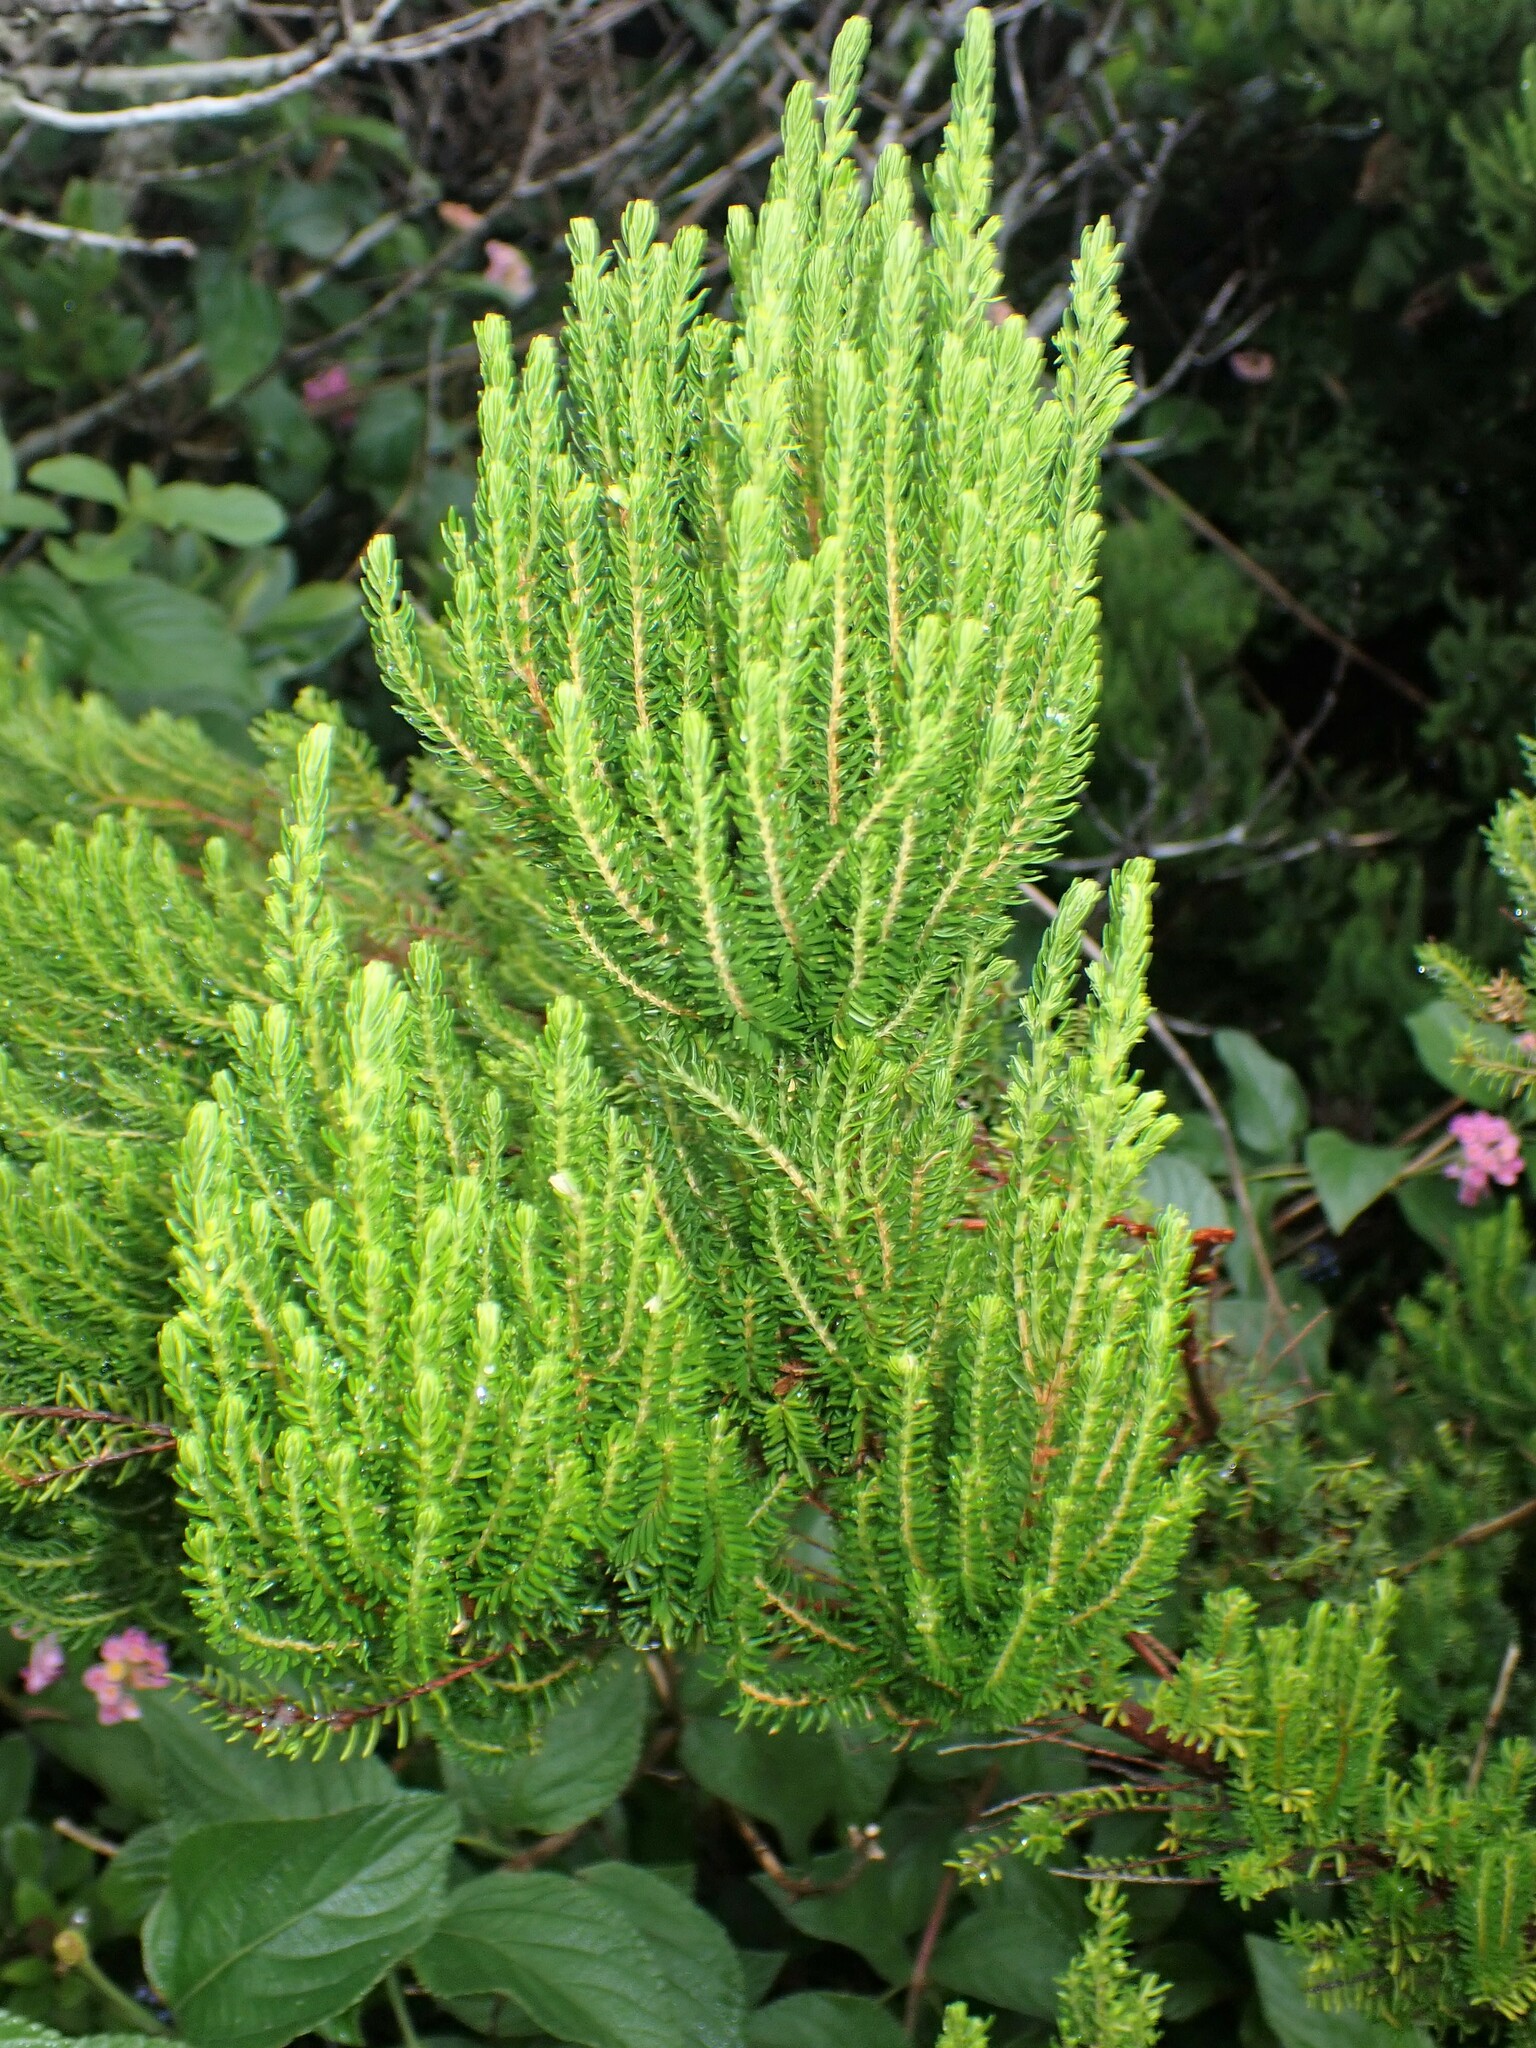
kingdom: Plantae
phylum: Tracheophyta
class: Magnoliopsida
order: Ericales
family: Ericaceae
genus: Erica
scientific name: Erica azorica
